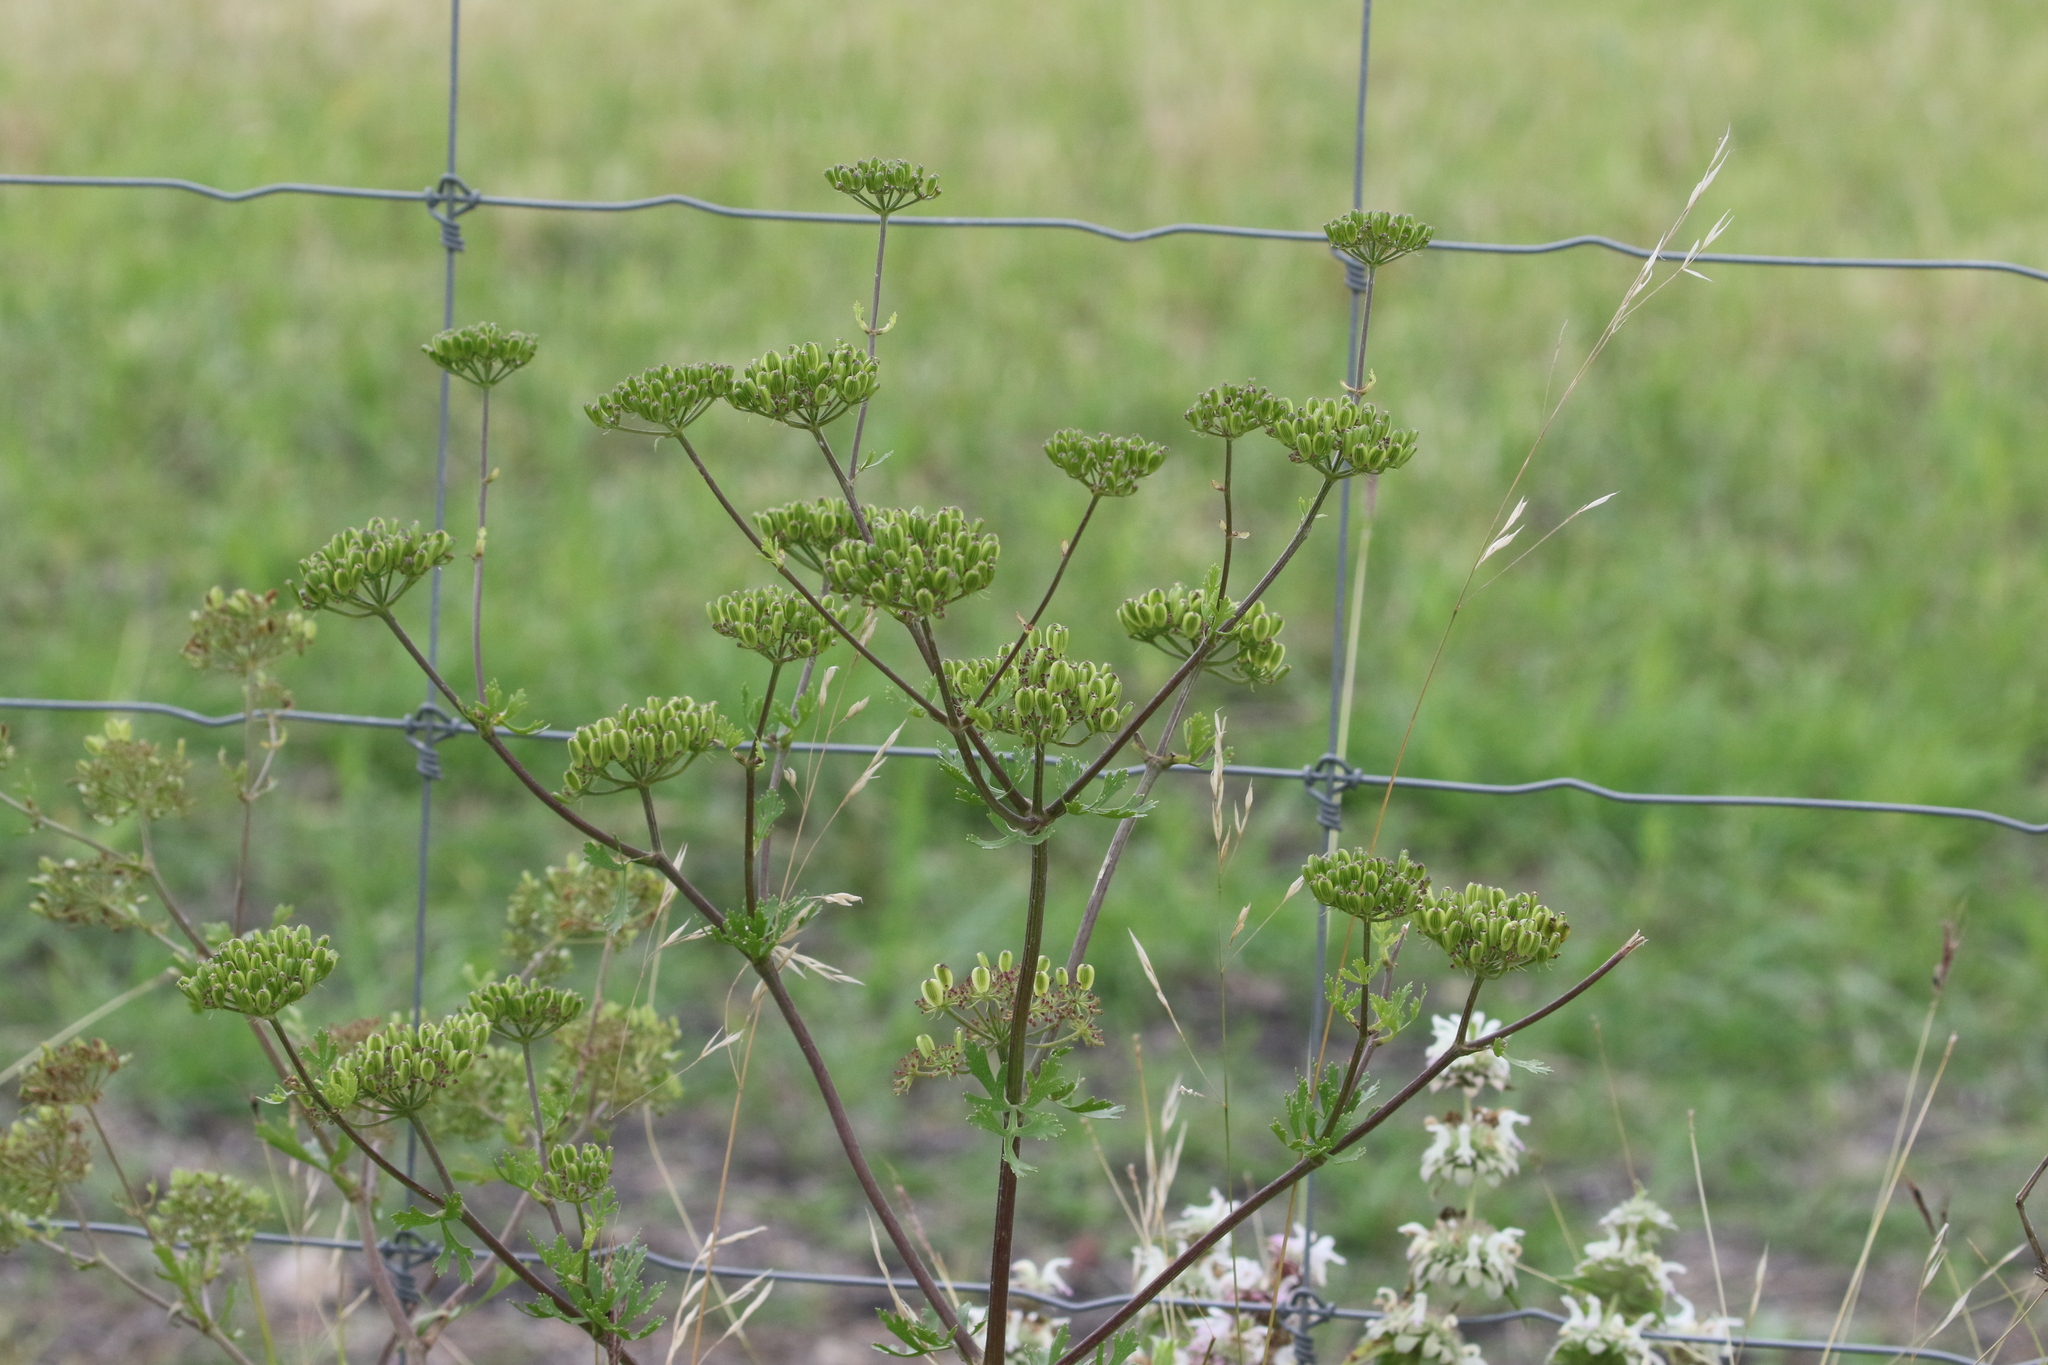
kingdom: Plantae
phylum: Tracheophyta
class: Magnoliopsida
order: Apiales
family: Apiaceae
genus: Polytaenia
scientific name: Polytaenia texana
